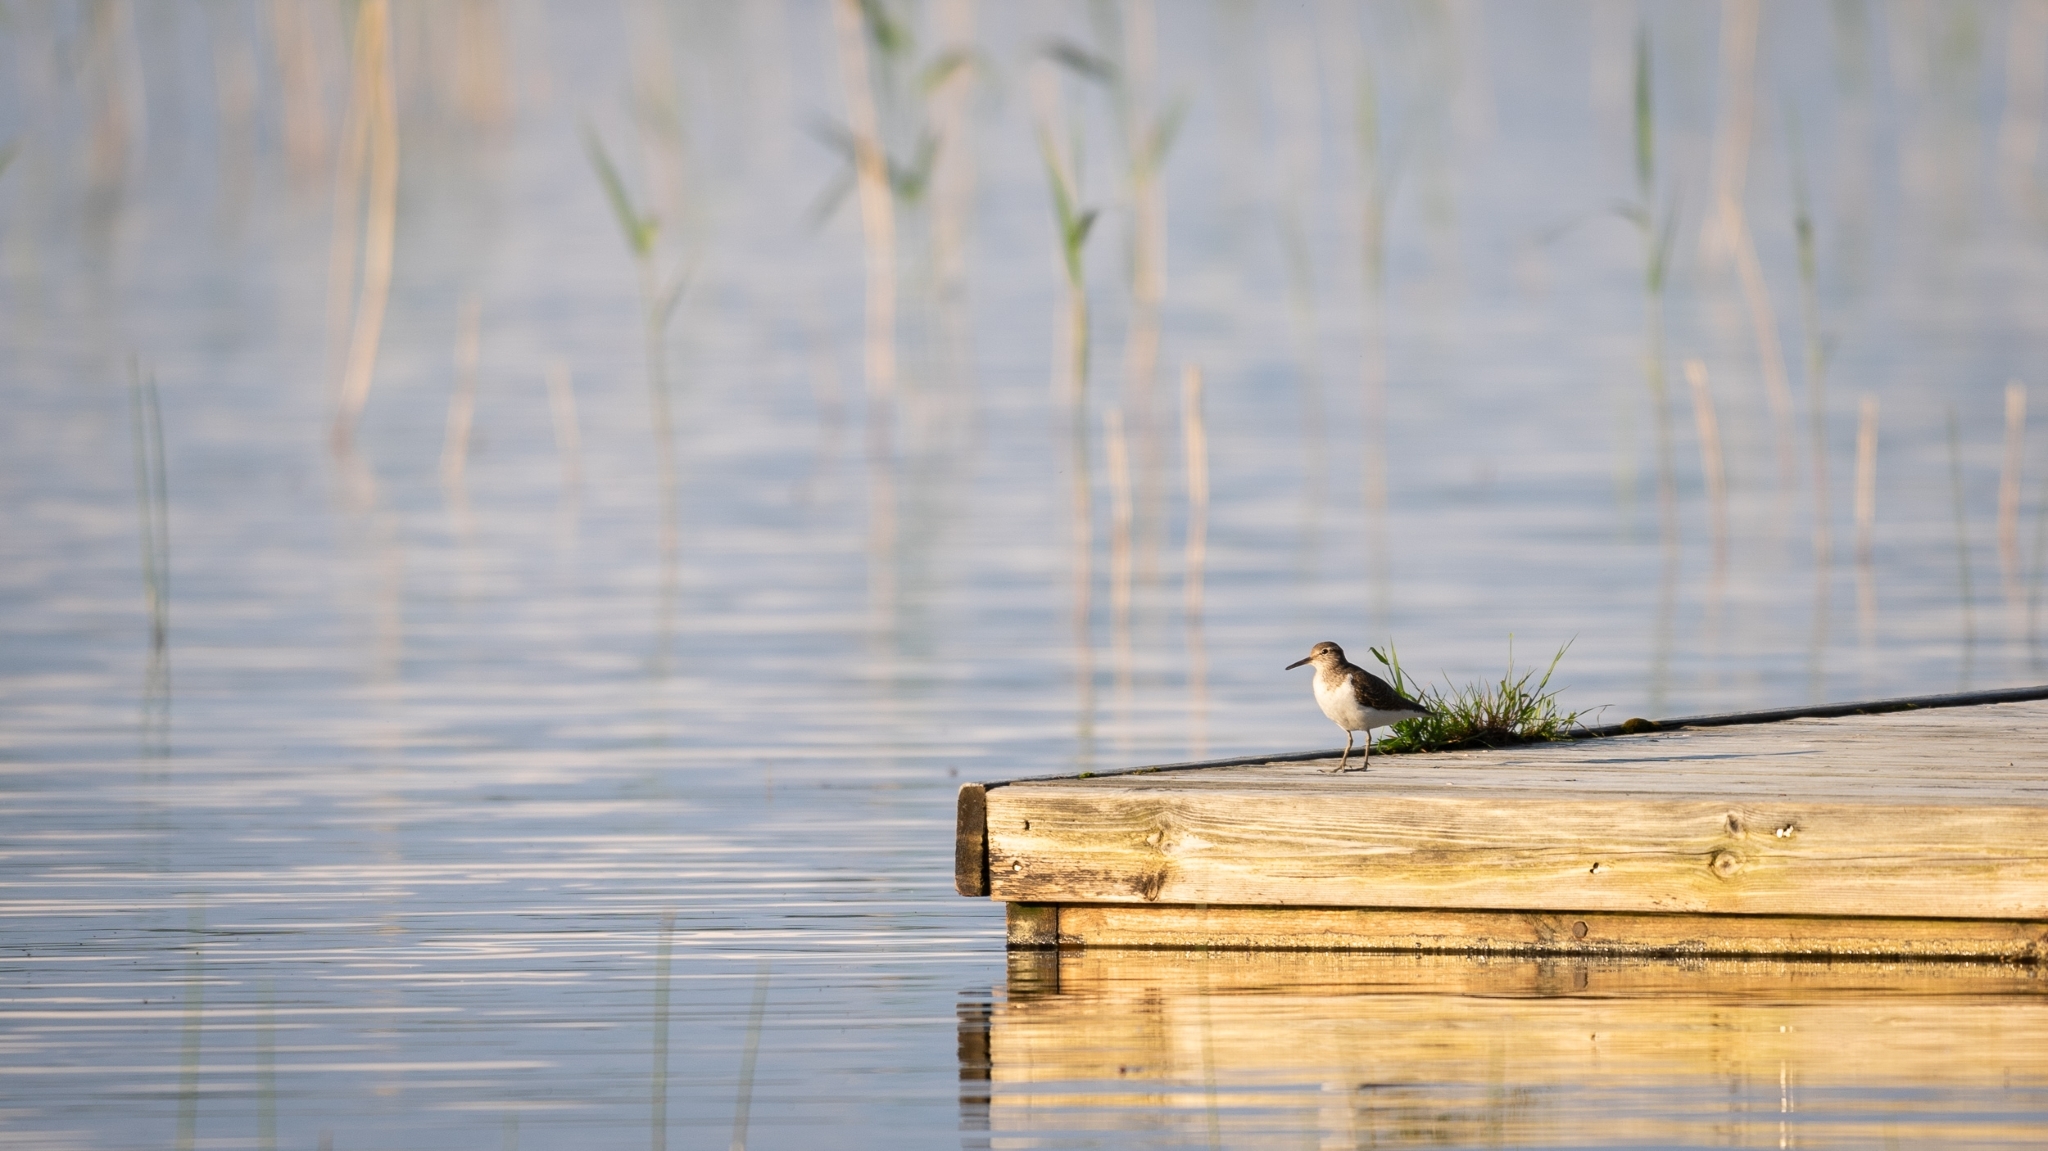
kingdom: Animalia
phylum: Chordata
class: Aves
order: Charadriiformes
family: Scolopacidae
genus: Actitis
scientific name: Actitis hypoleucos
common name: Common sandpiper
